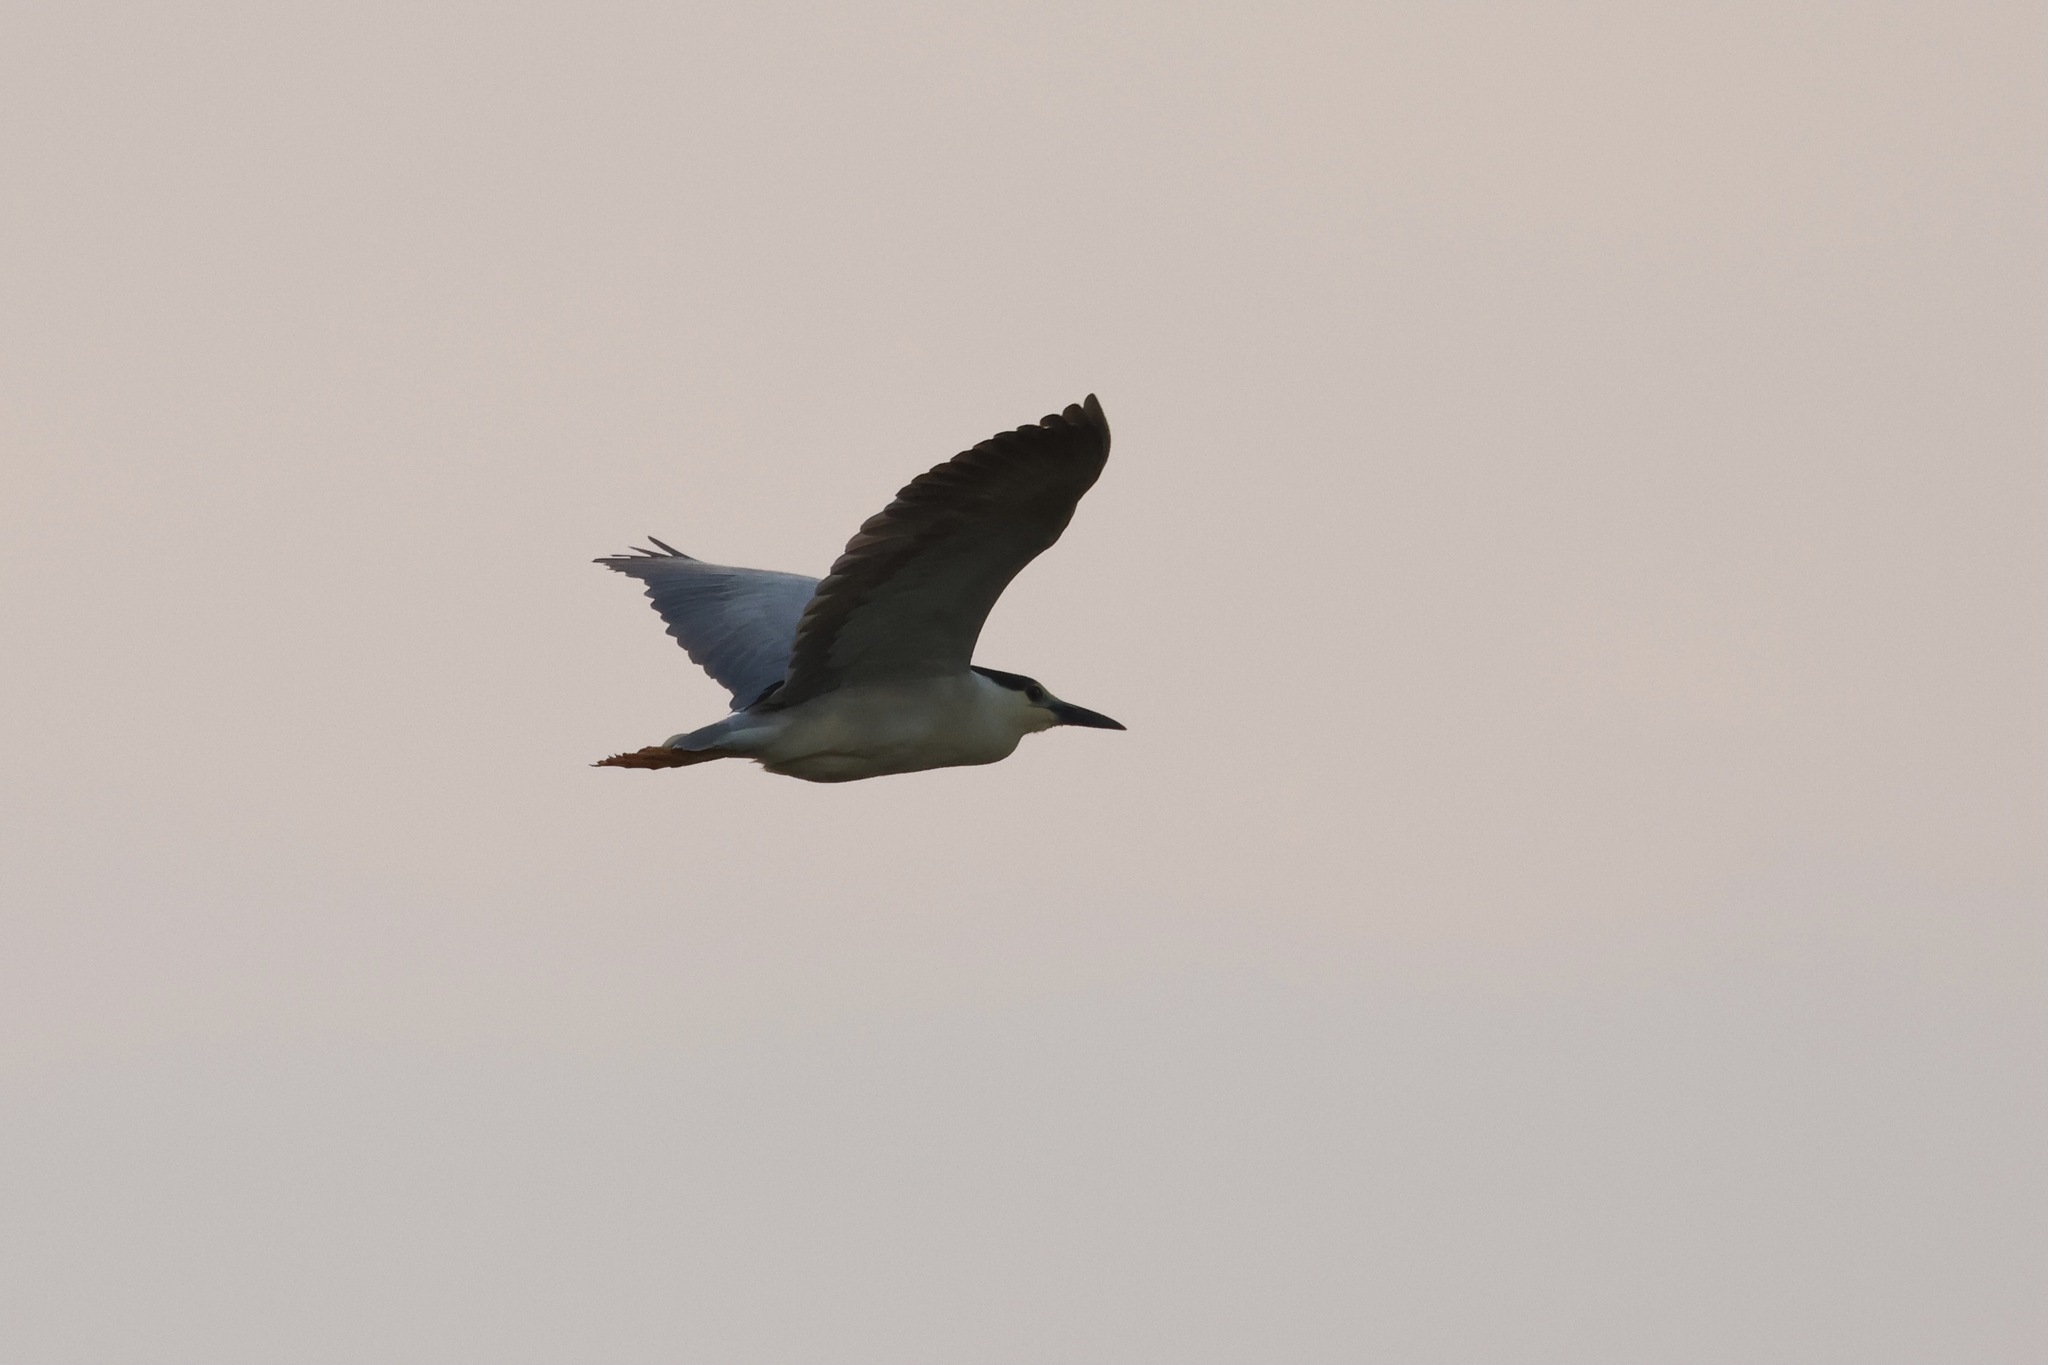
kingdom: Animalia
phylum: Chordata
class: Aves
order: Pelecaniformes
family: Ardeidae
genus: Nycticorax
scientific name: Nycticorax nycticorax
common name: Black-crowned night heron
